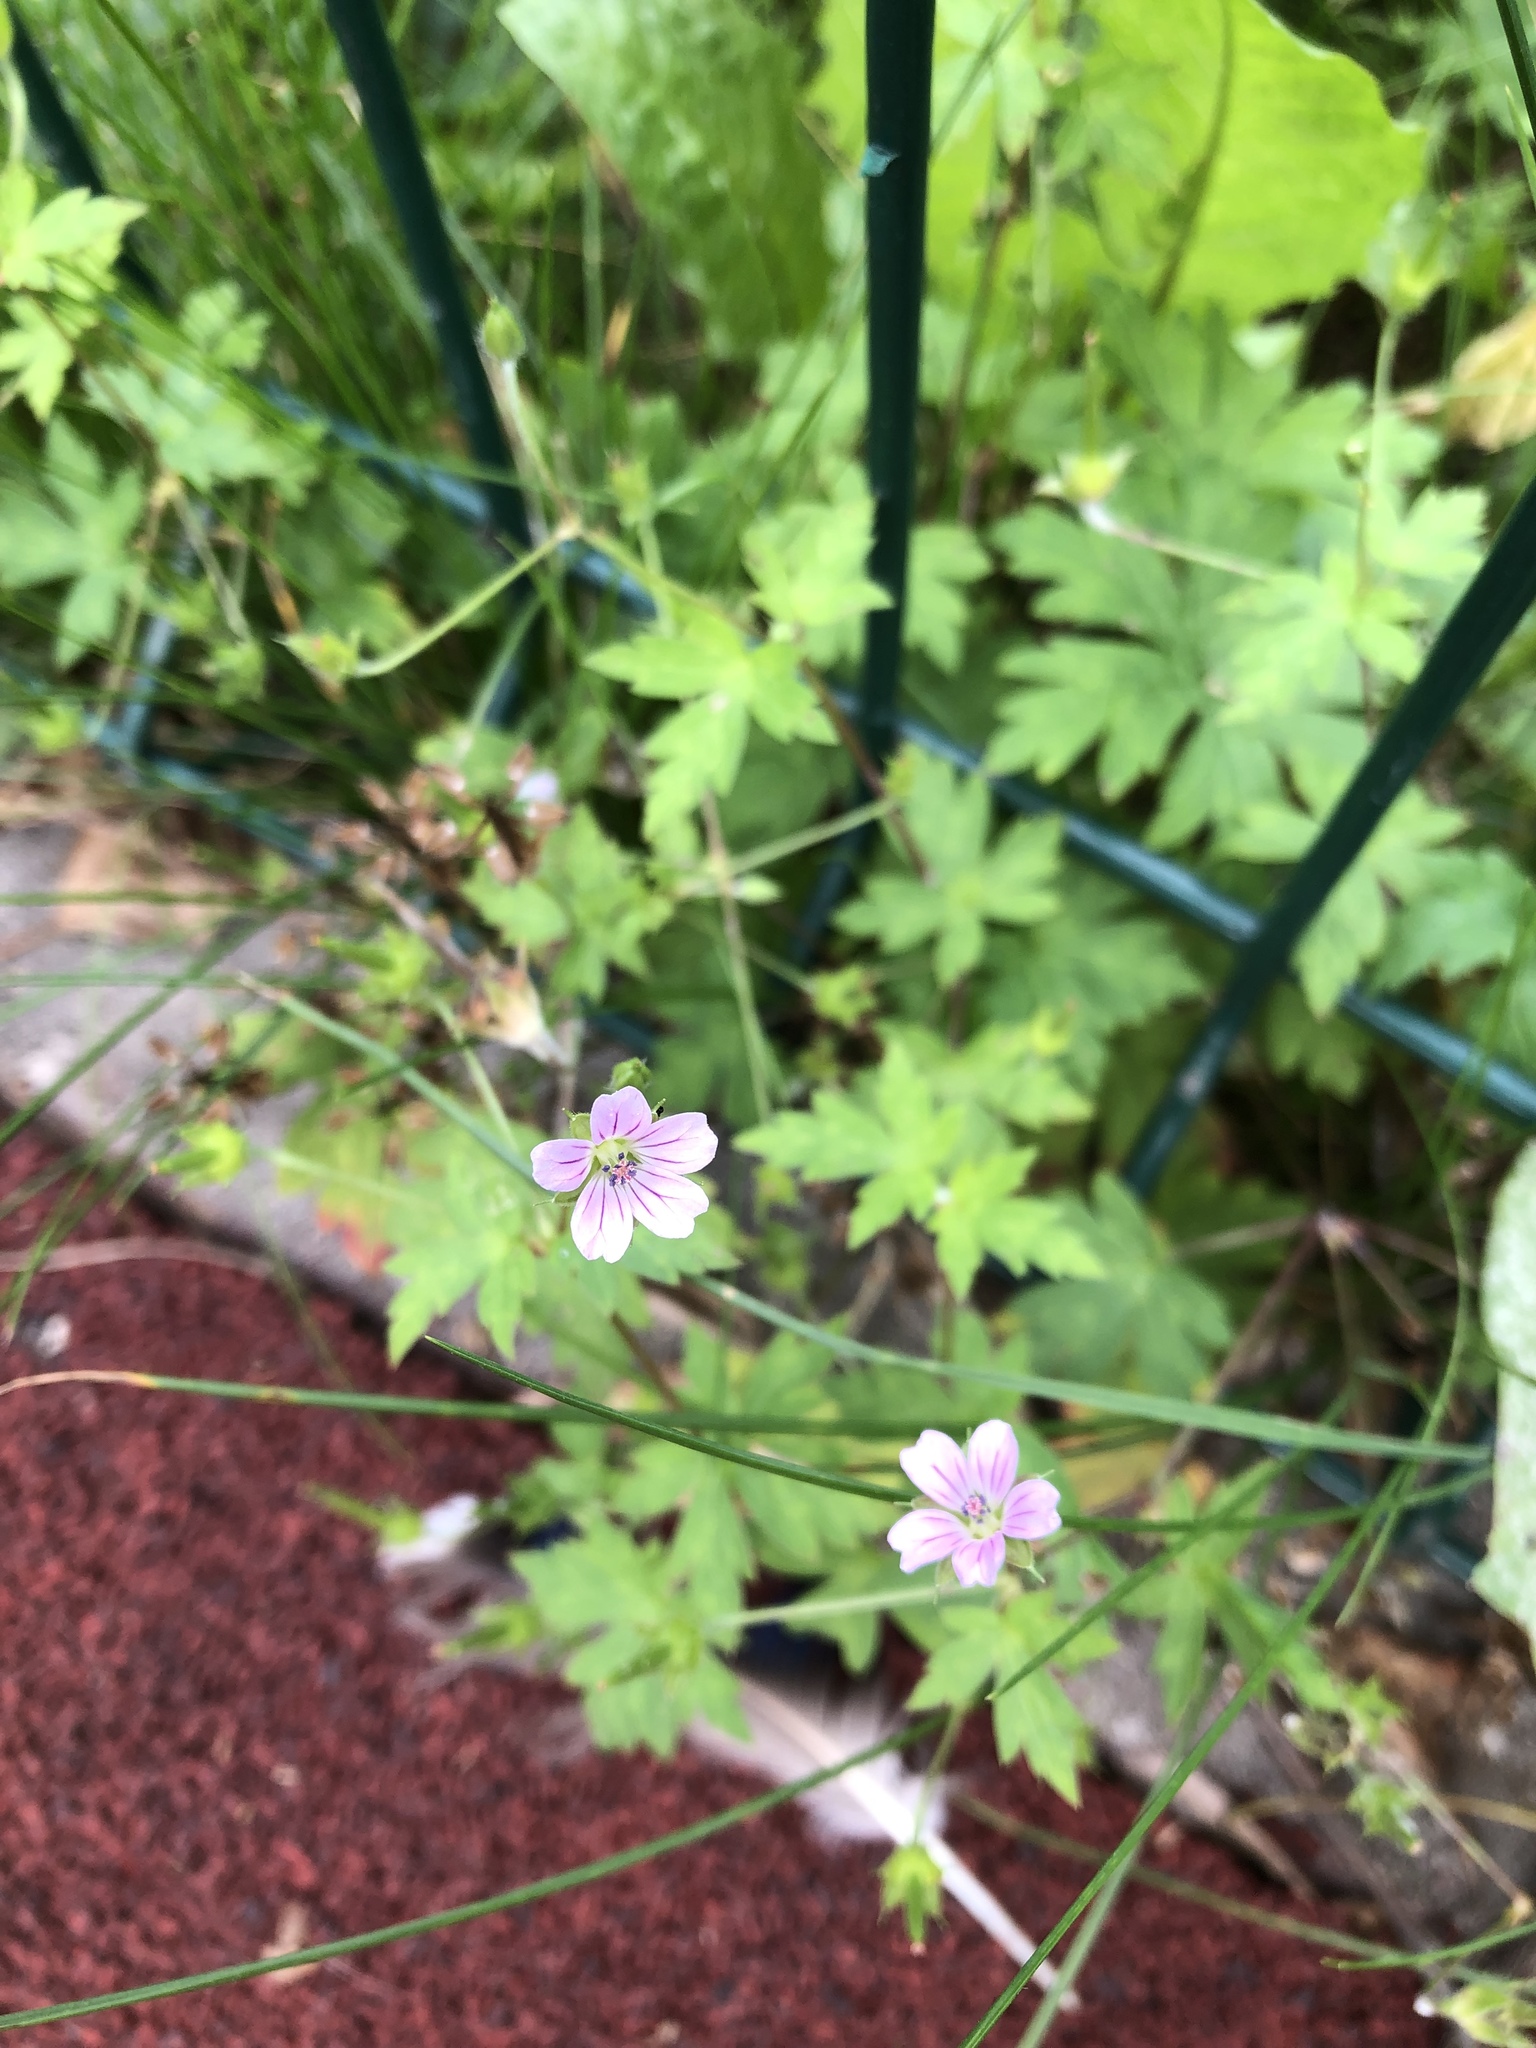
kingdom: Plantae
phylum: Tracheophyta
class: Magnoliopsida
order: Geraniales
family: Geraniaceae
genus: Geranium
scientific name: Geranium sibiricum
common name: Siberian crane's-bill
